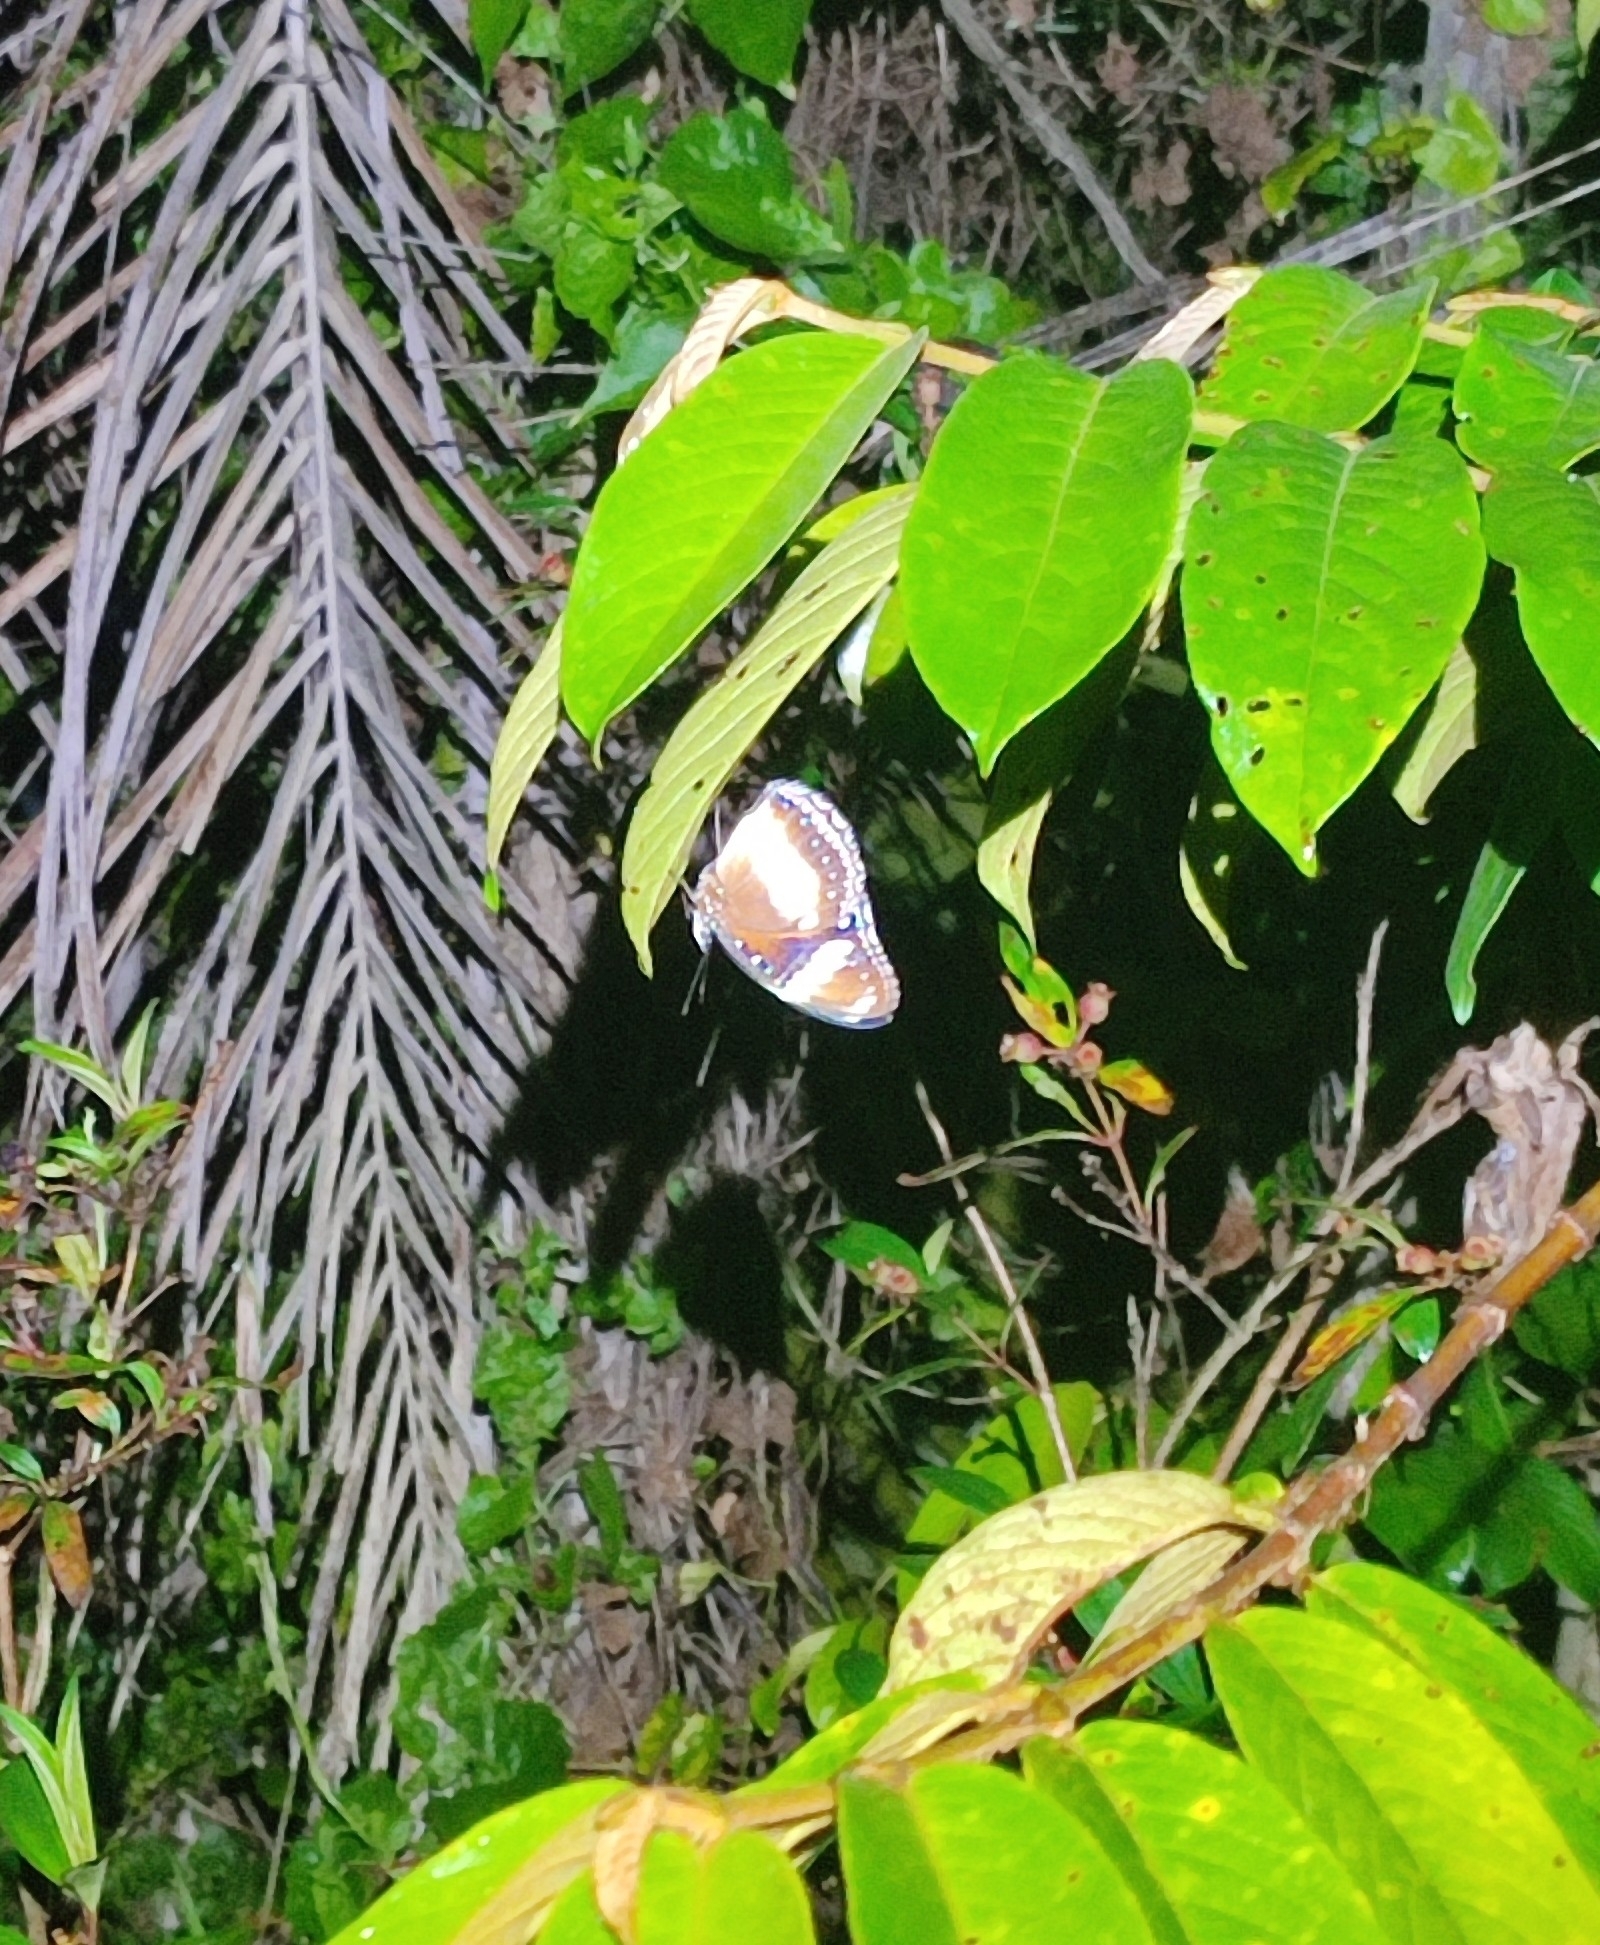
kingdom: Animalia
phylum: Arthropoda
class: Insecta
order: Lepidoptera
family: Nymphalidae
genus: Hypolimnas
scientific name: Hypolimnas bolina
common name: Great eggfly
